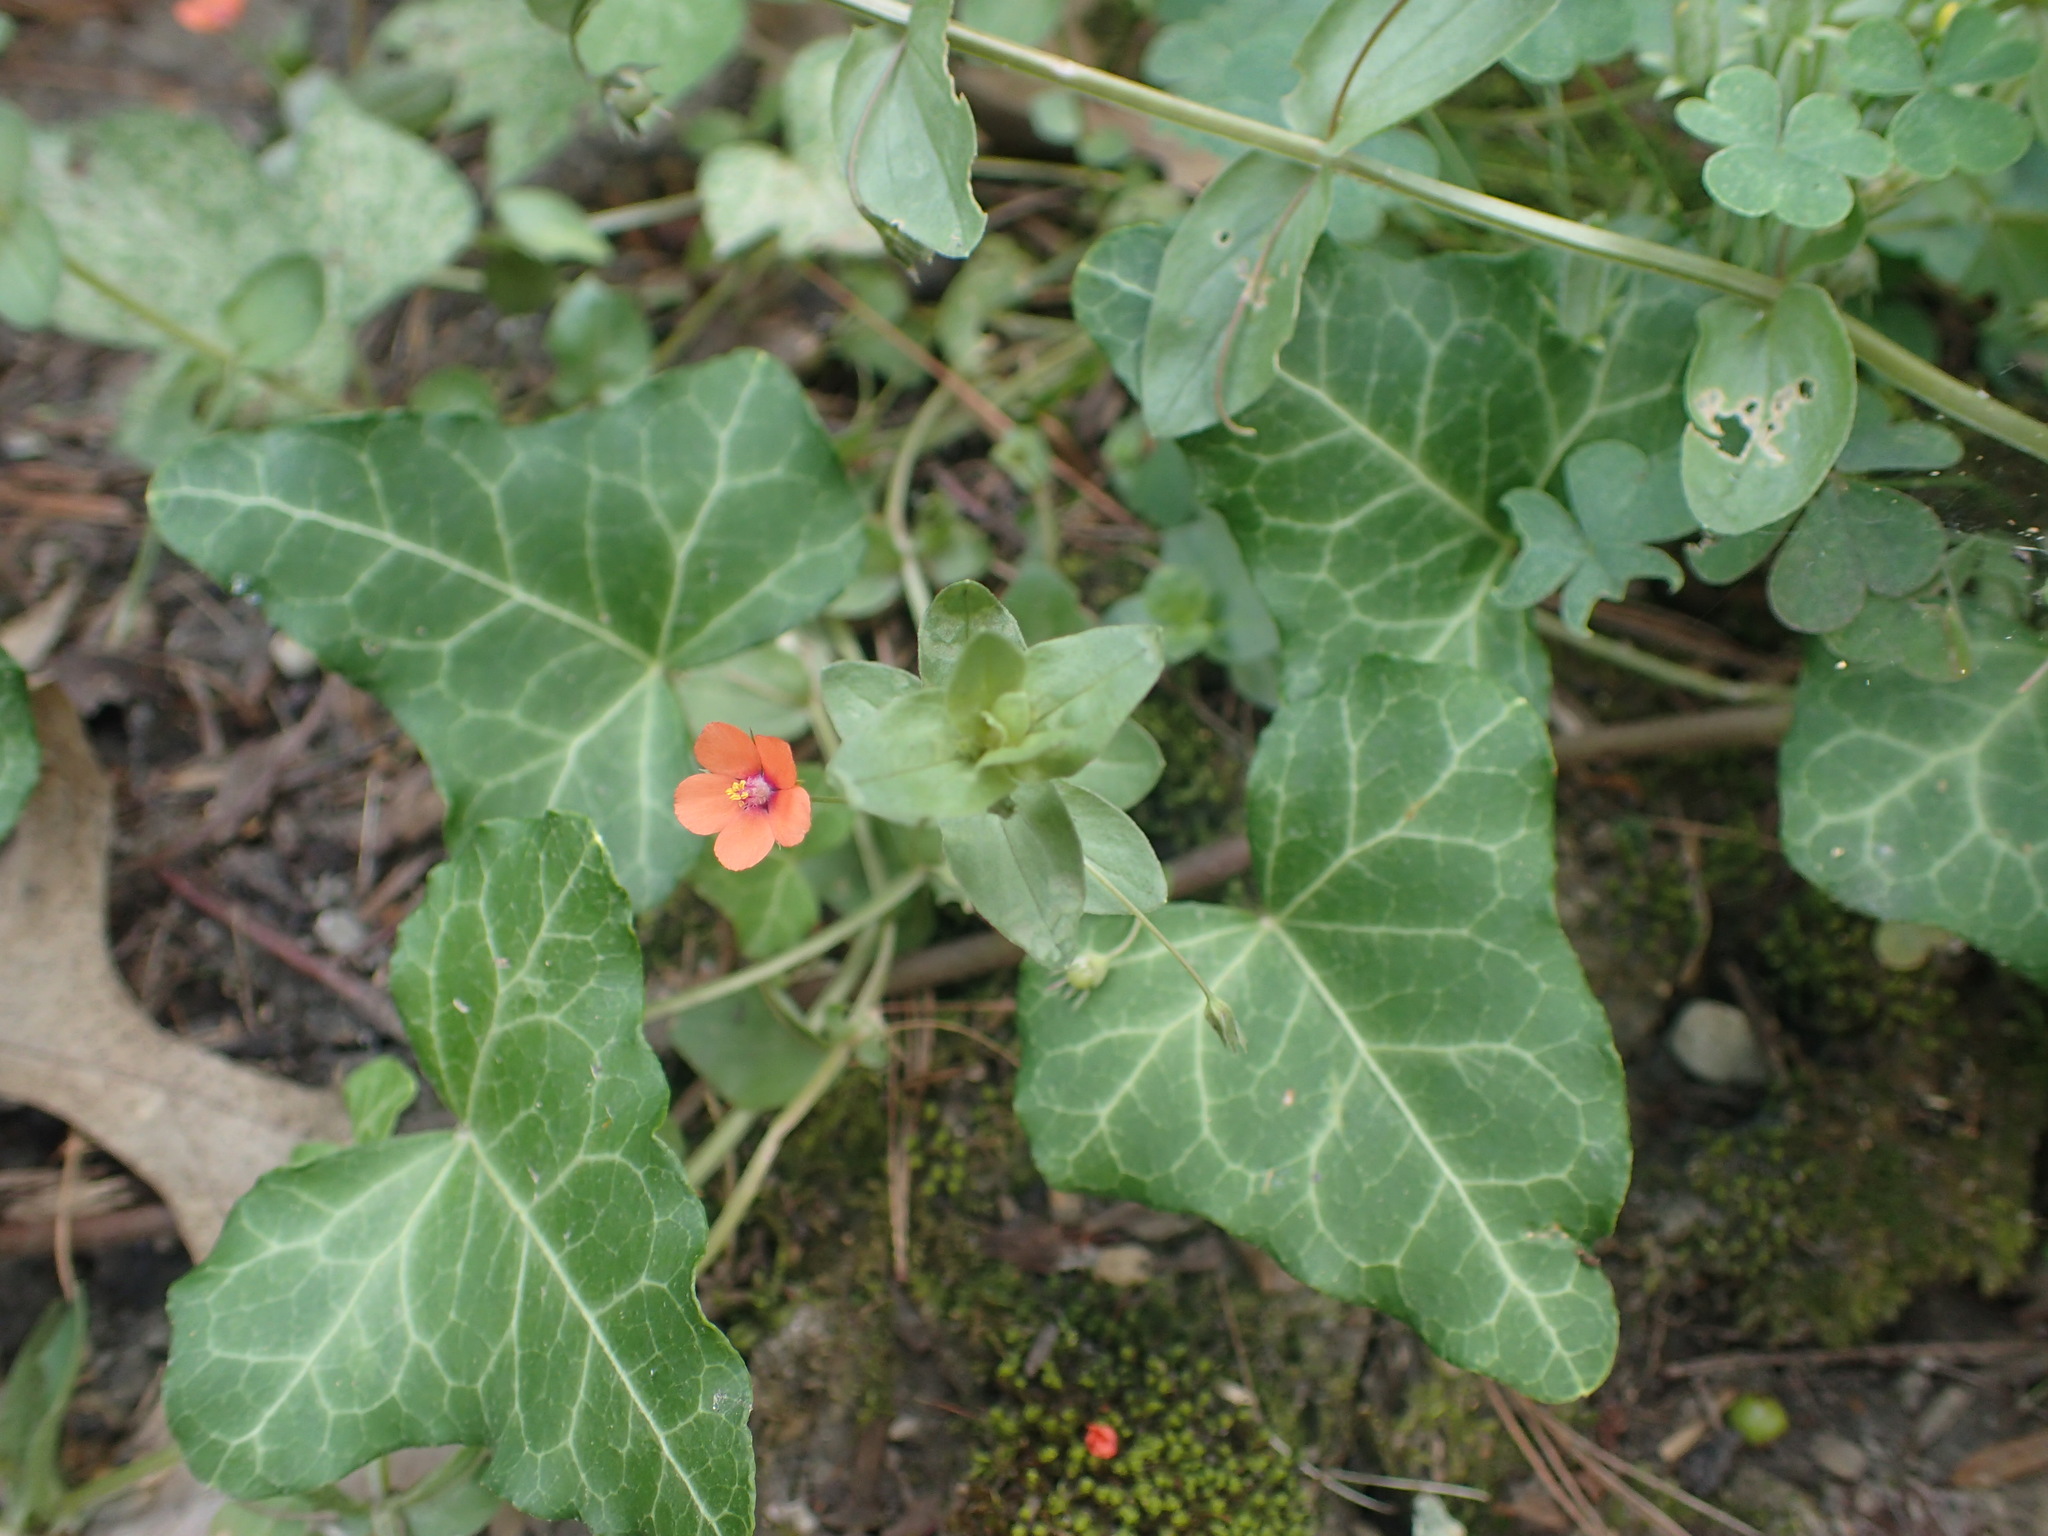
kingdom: Plantae
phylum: Tracheophyta
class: Magnoliopsida
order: Ericales
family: Primulaceae
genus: Lysimachia
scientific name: Lysimachia arvensis
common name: Scarlet pimpernel
